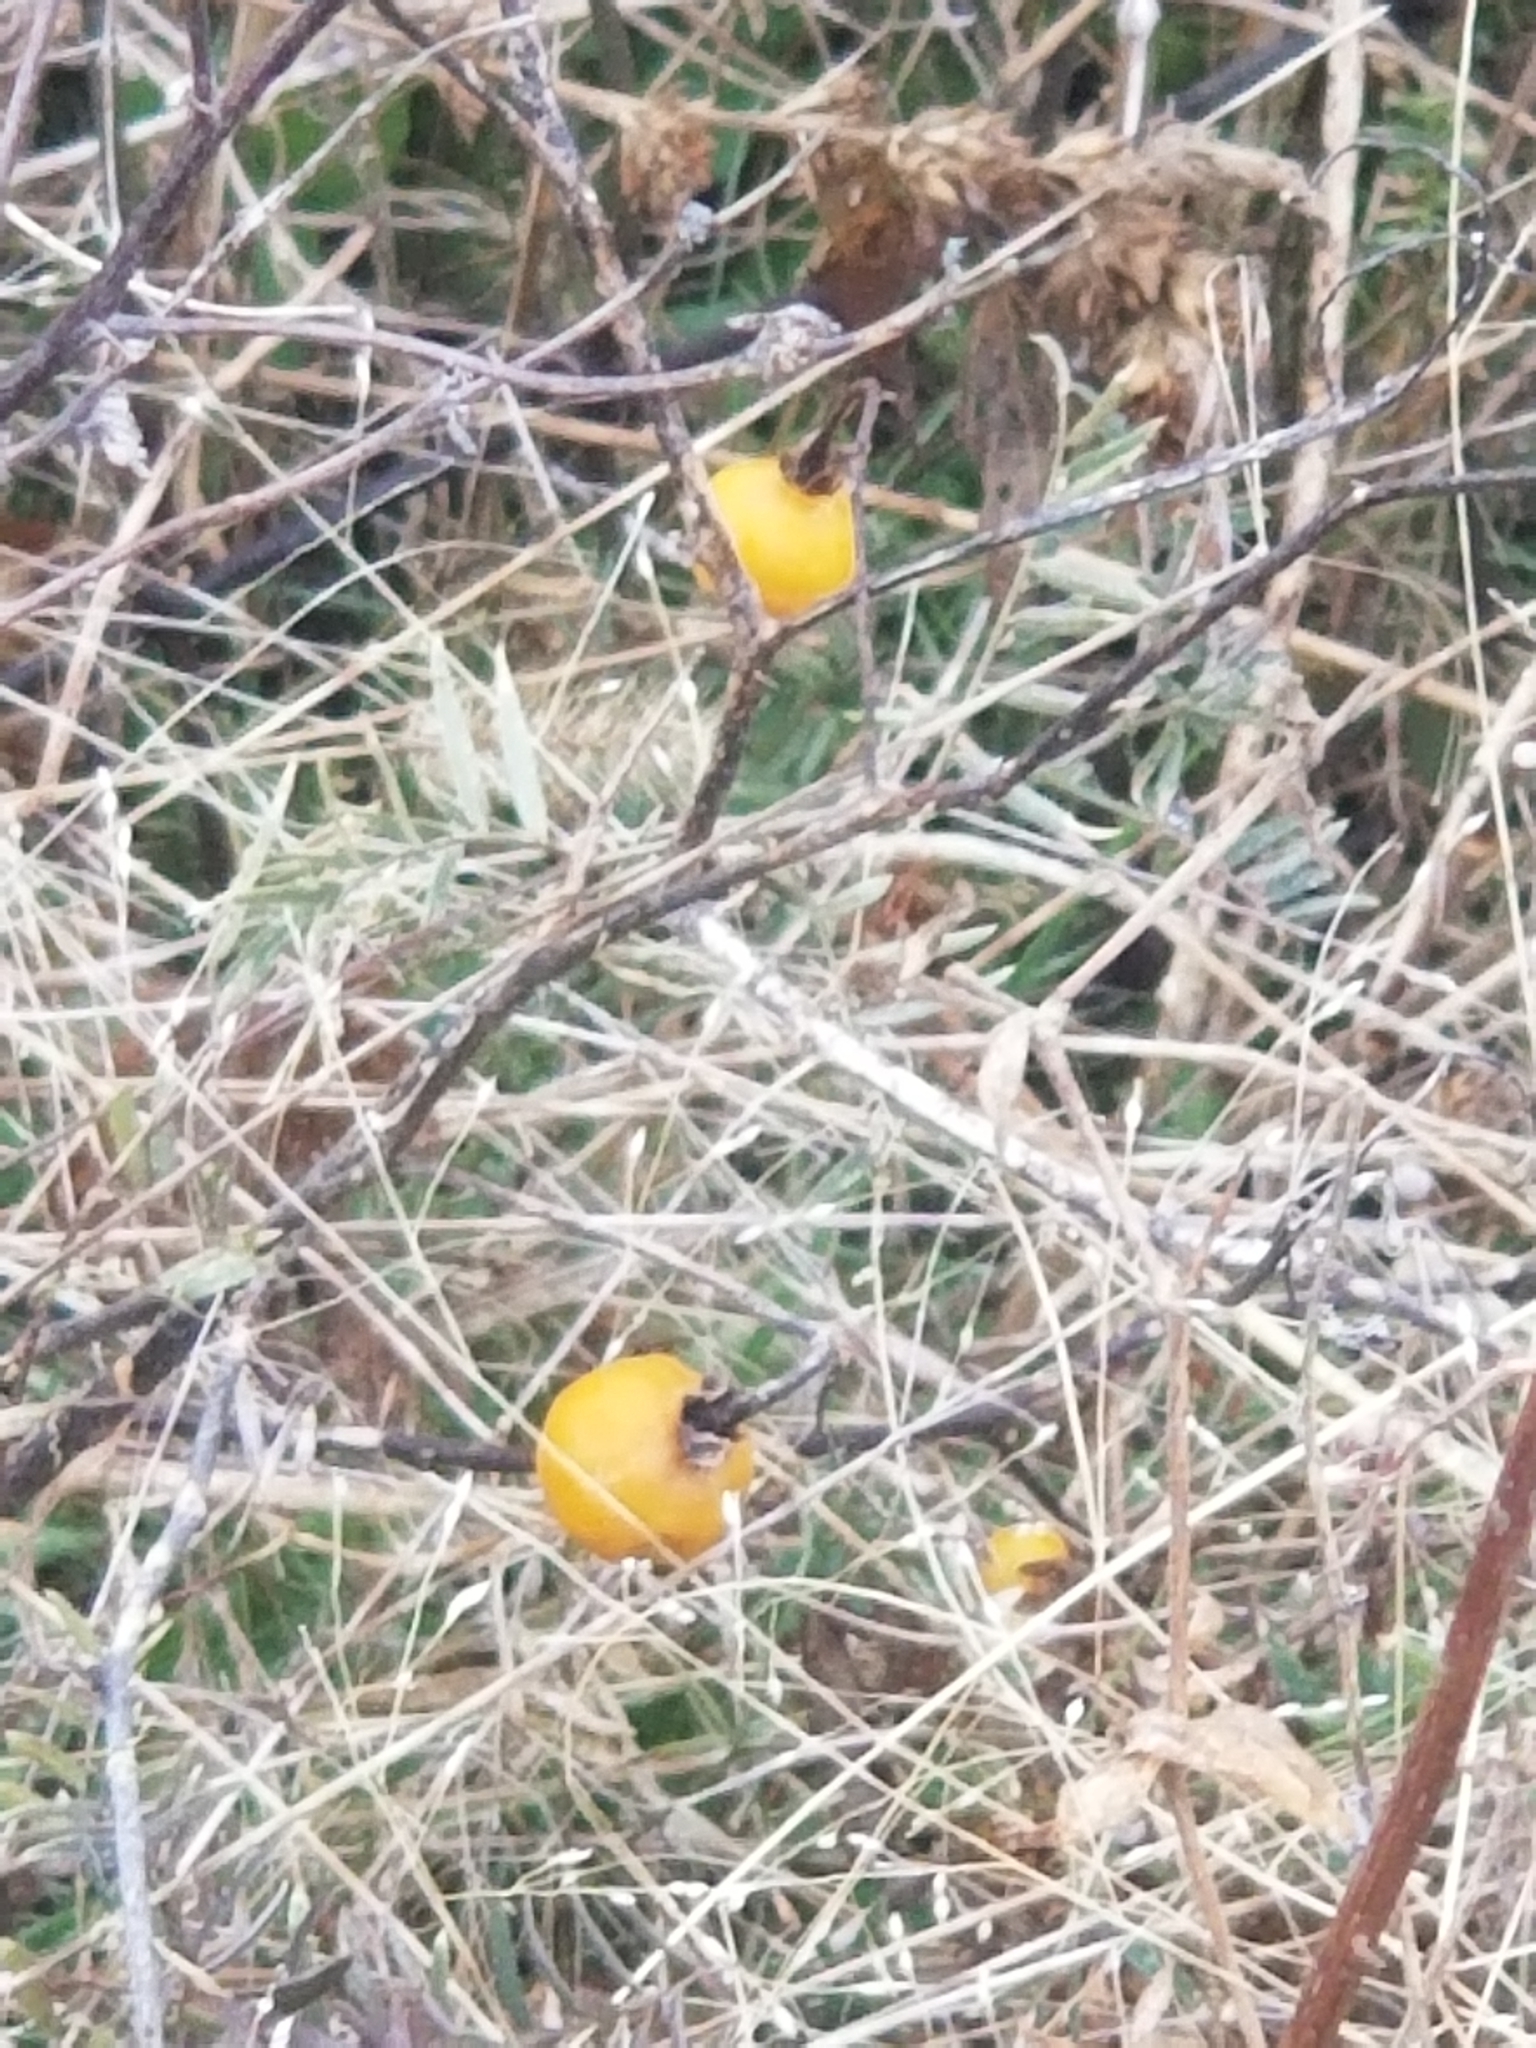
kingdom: Plantae
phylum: Tracheophyta
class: Magnoliopsida
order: Solanales
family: Solanaceae
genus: Solanum
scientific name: Solanum carolinense
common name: Horse-nettle
